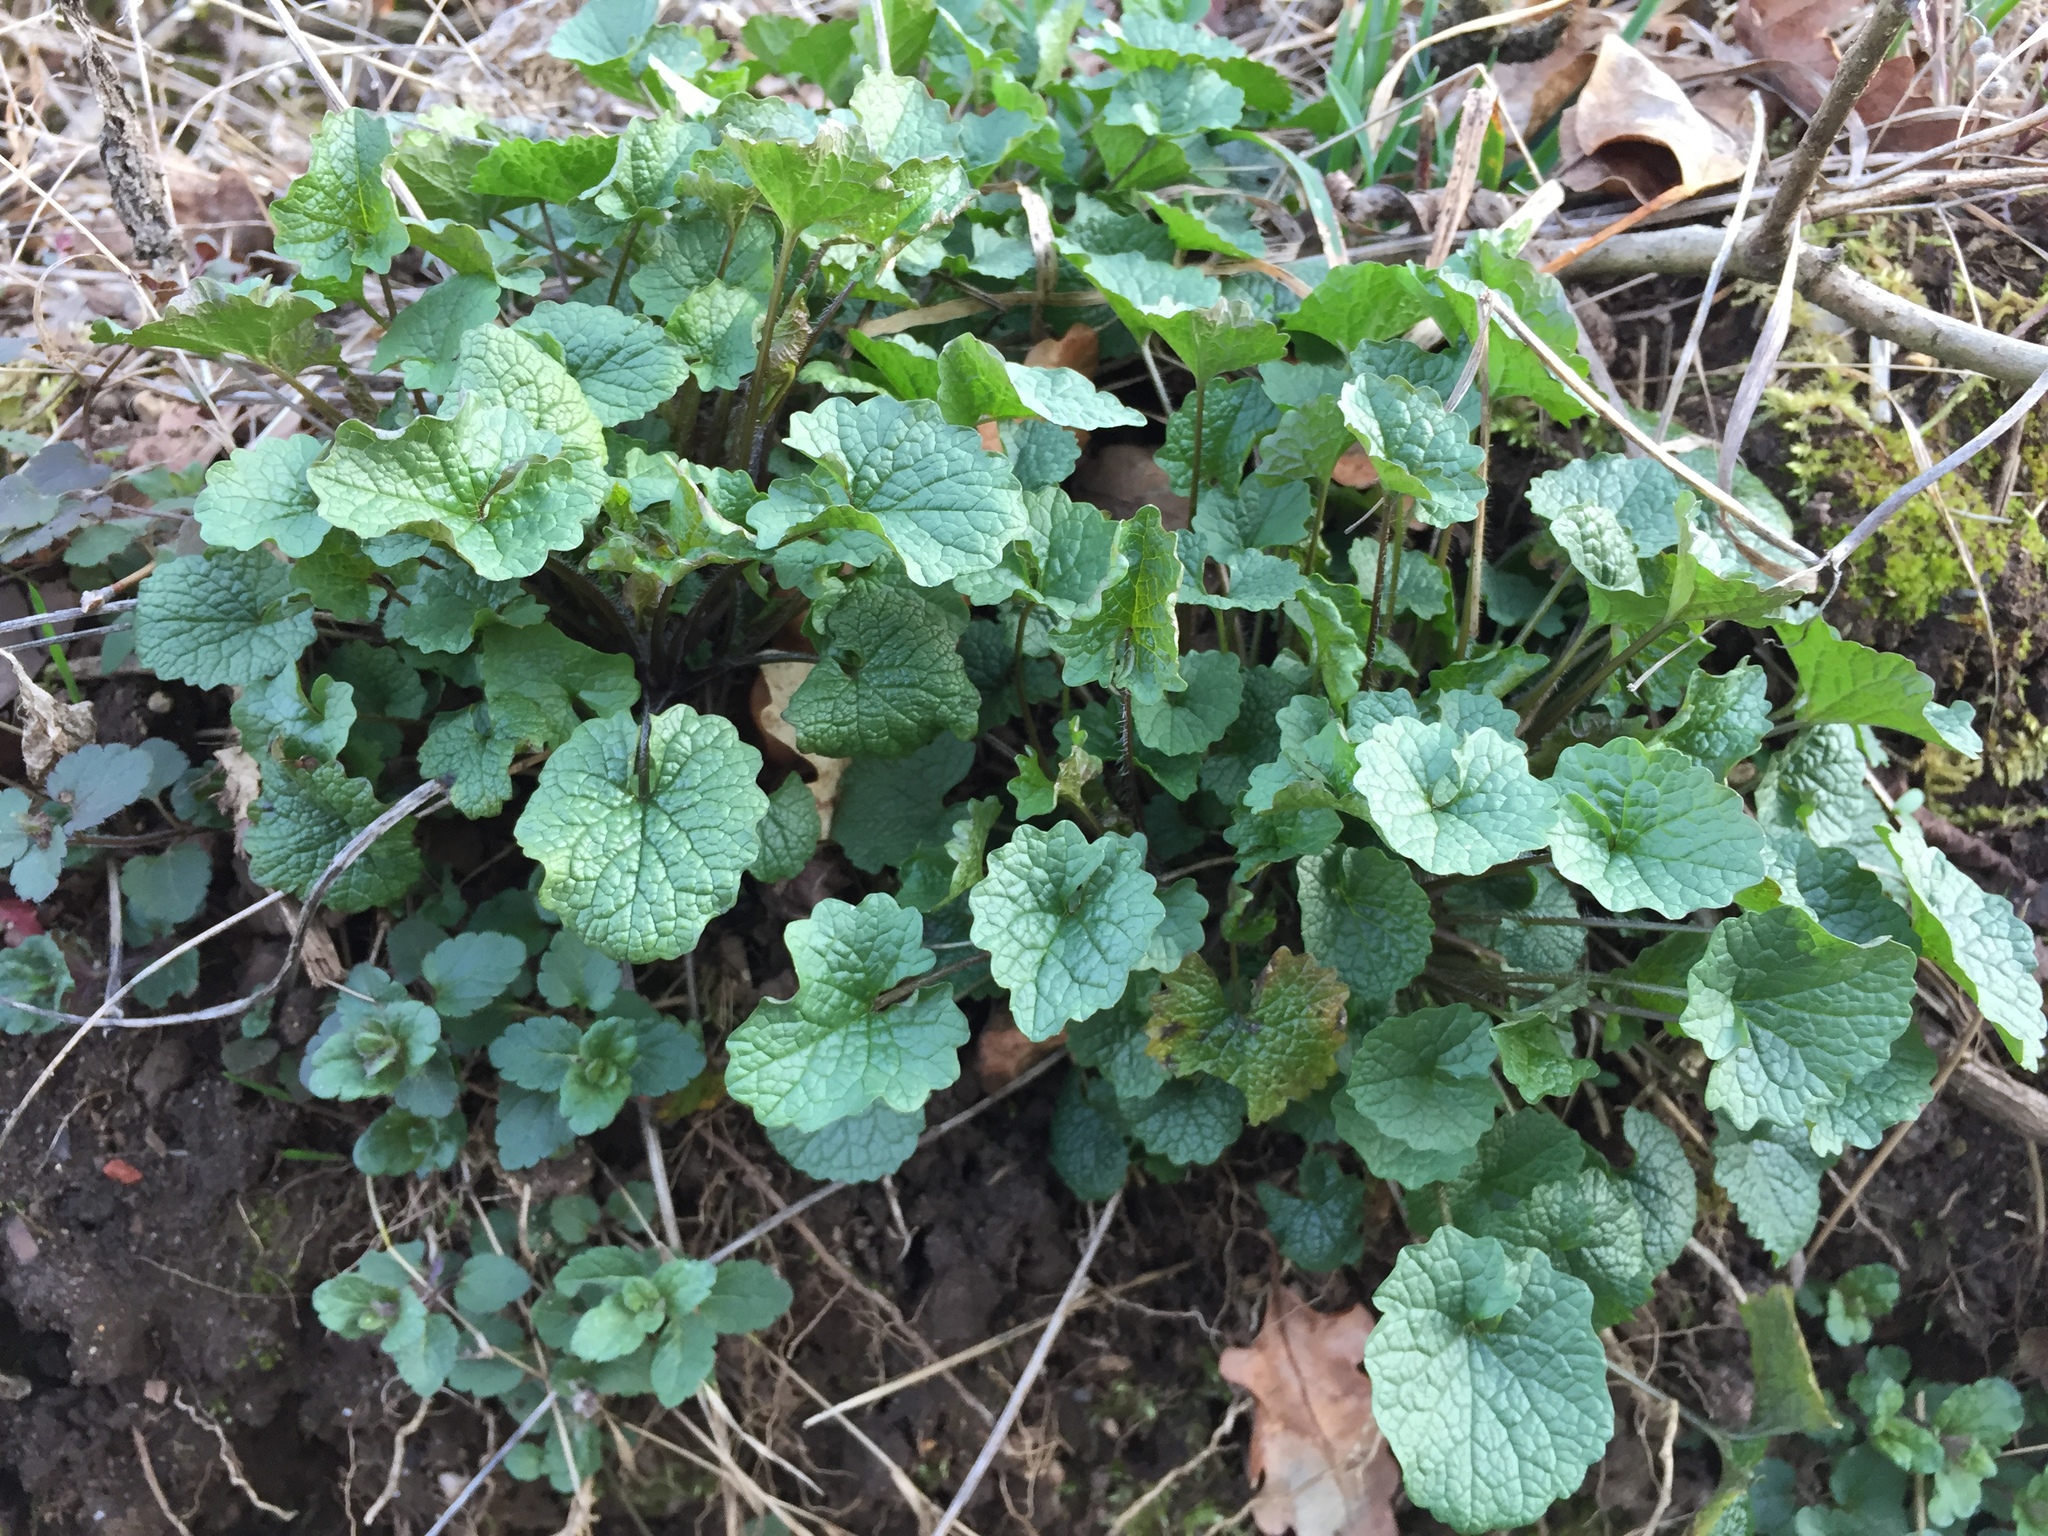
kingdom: Plantae
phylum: Tracheophyta
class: Magnoliopsida
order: Brassicales
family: Brassicaceae
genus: Alliaria
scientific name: Alliaria petiolata
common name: Garlic mustard
